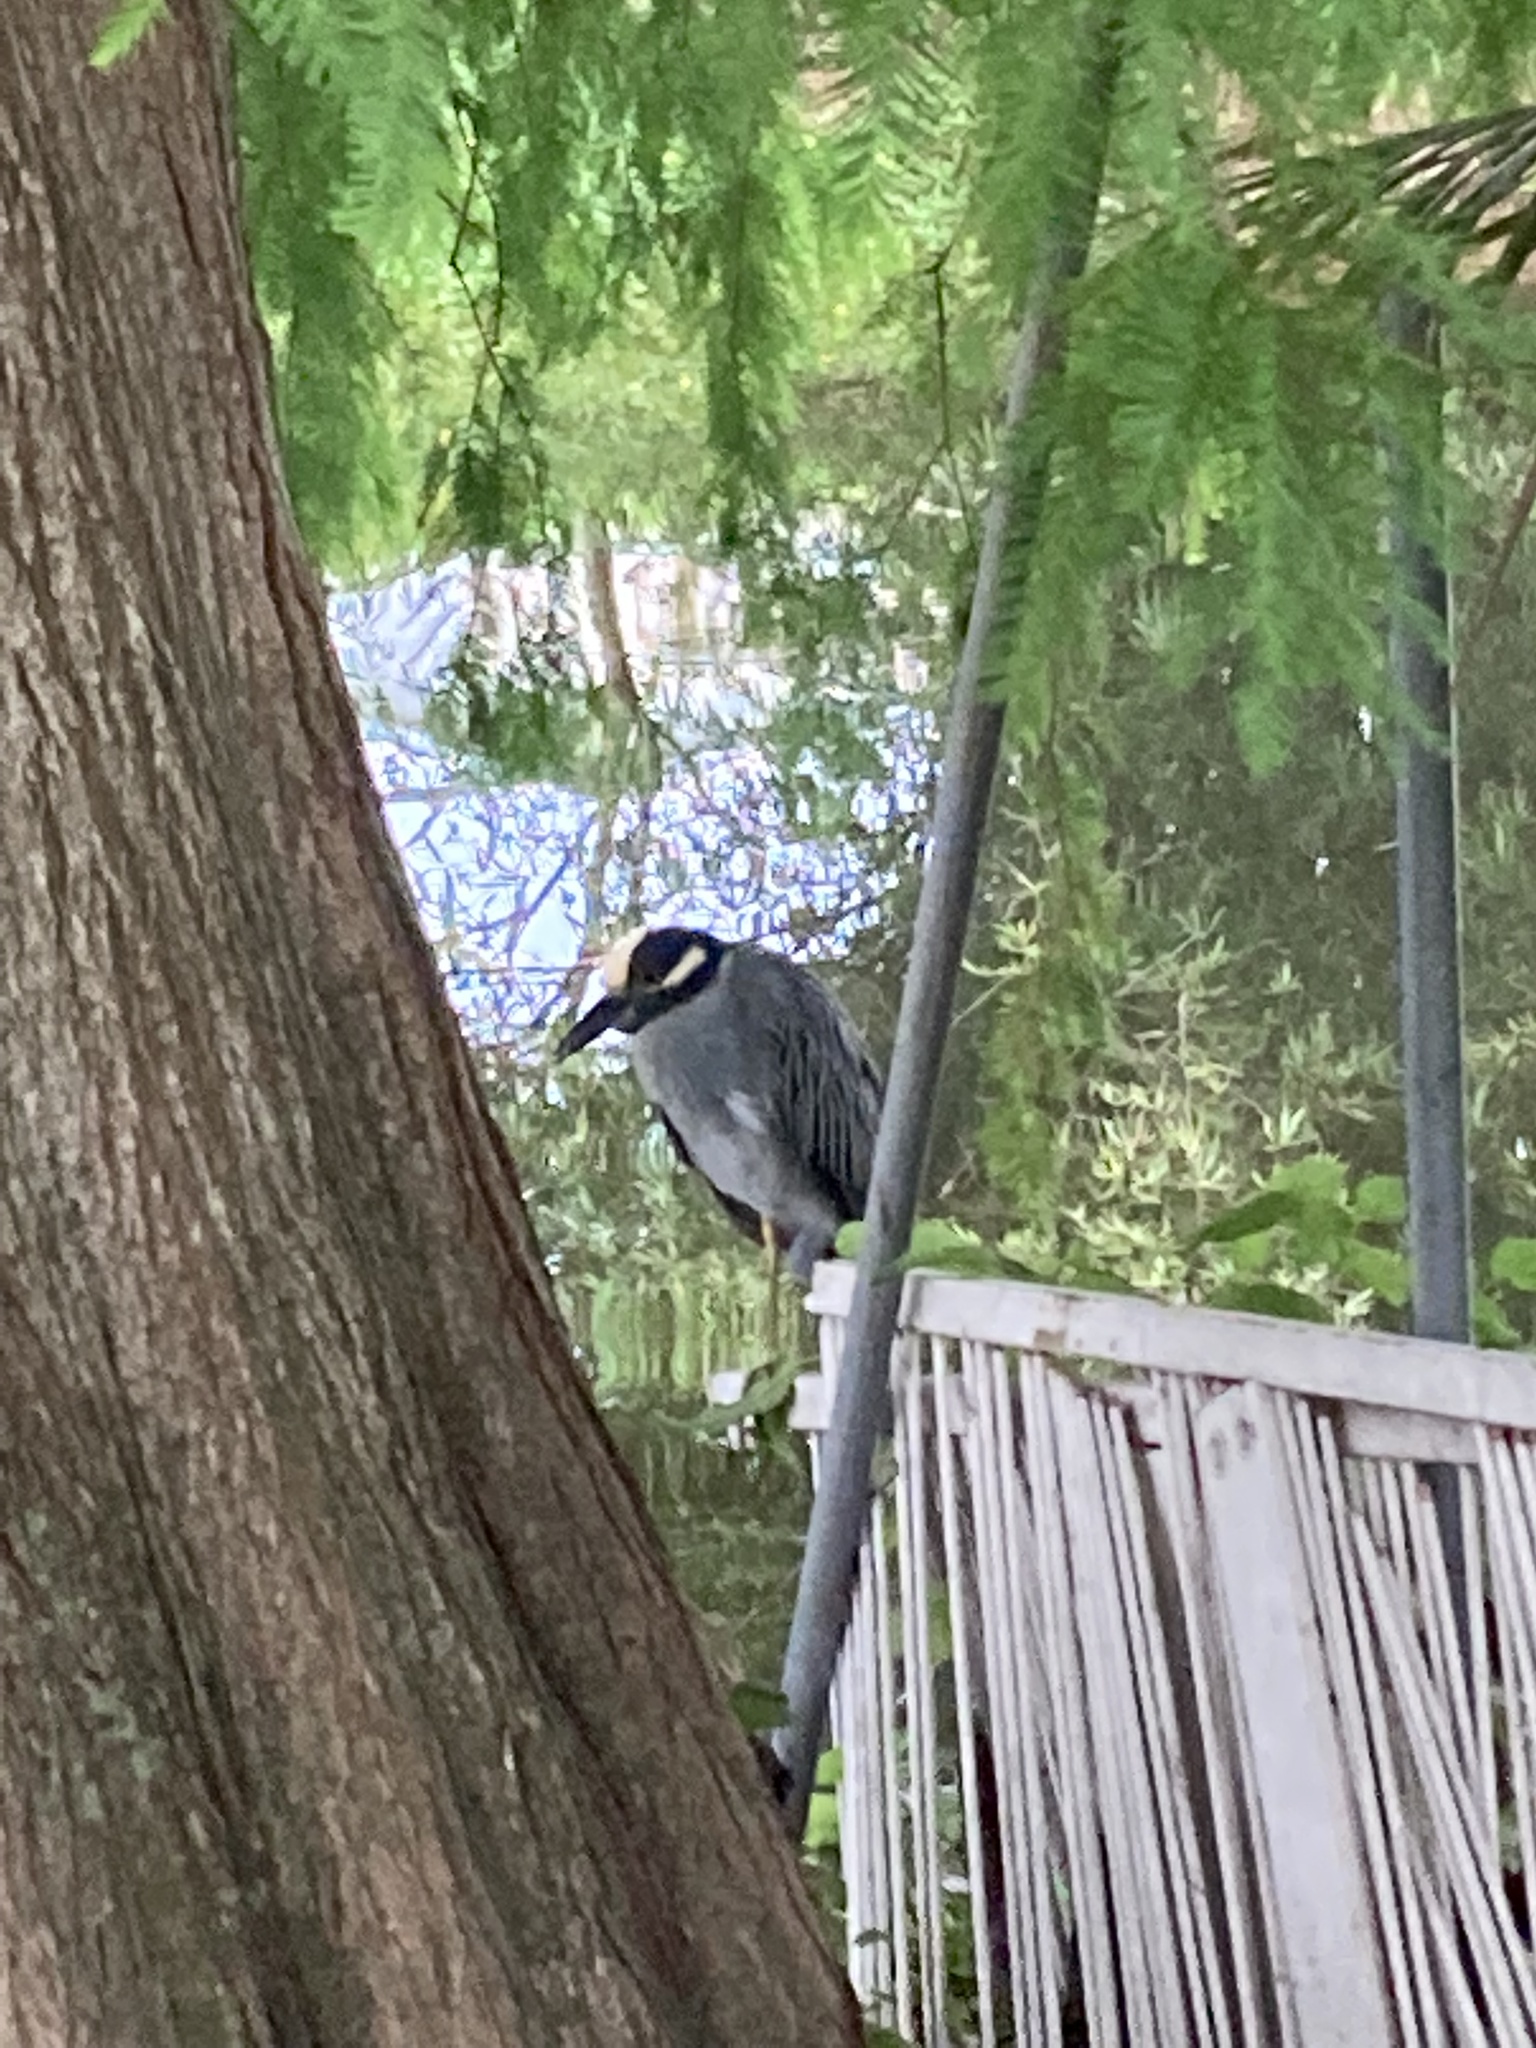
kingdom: Animalia
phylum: Chordata
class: Aves
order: Pelecaniformes
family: Ardeidae
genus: Nyctanassa
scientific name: Nyctanassa violacea
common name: Yellow-crowned night heron
